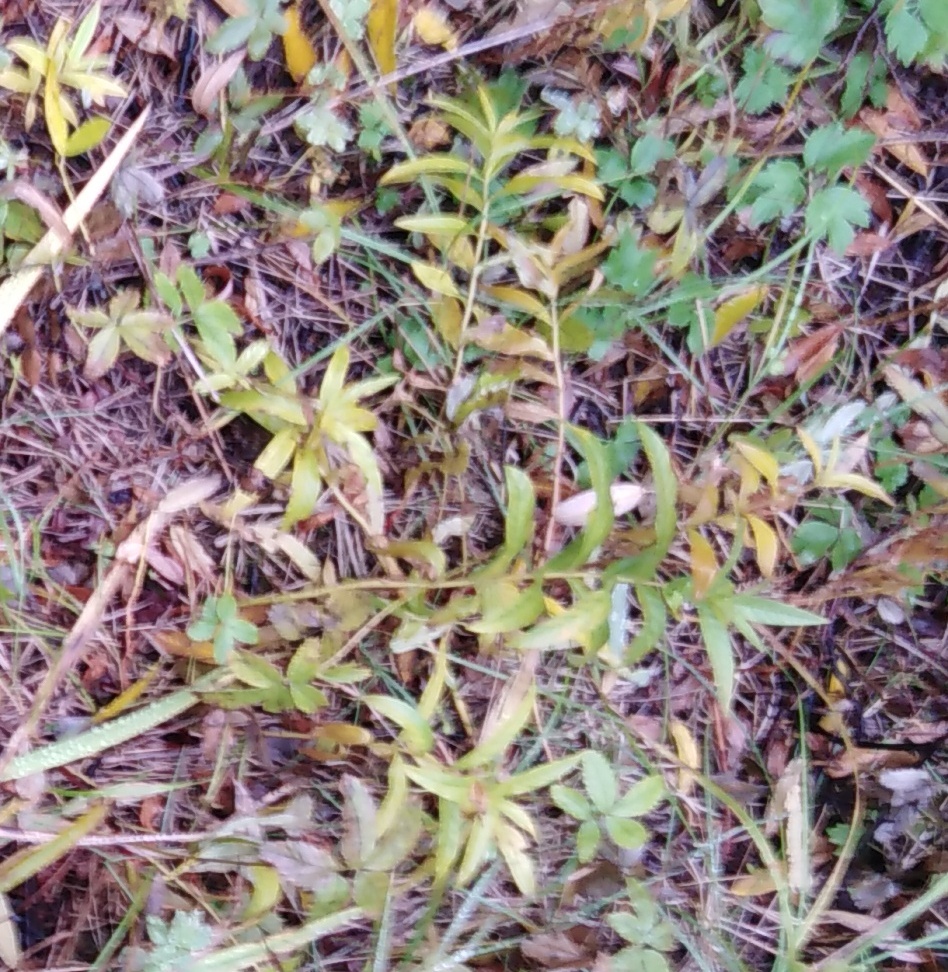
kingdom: Plantae
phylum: Tracheophyta
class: Magnoliopsida
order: Ericales
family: Primulaceae
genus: Lysimachia
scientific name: Lysimachia thyrsiflora
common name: Tufted loosestrife
